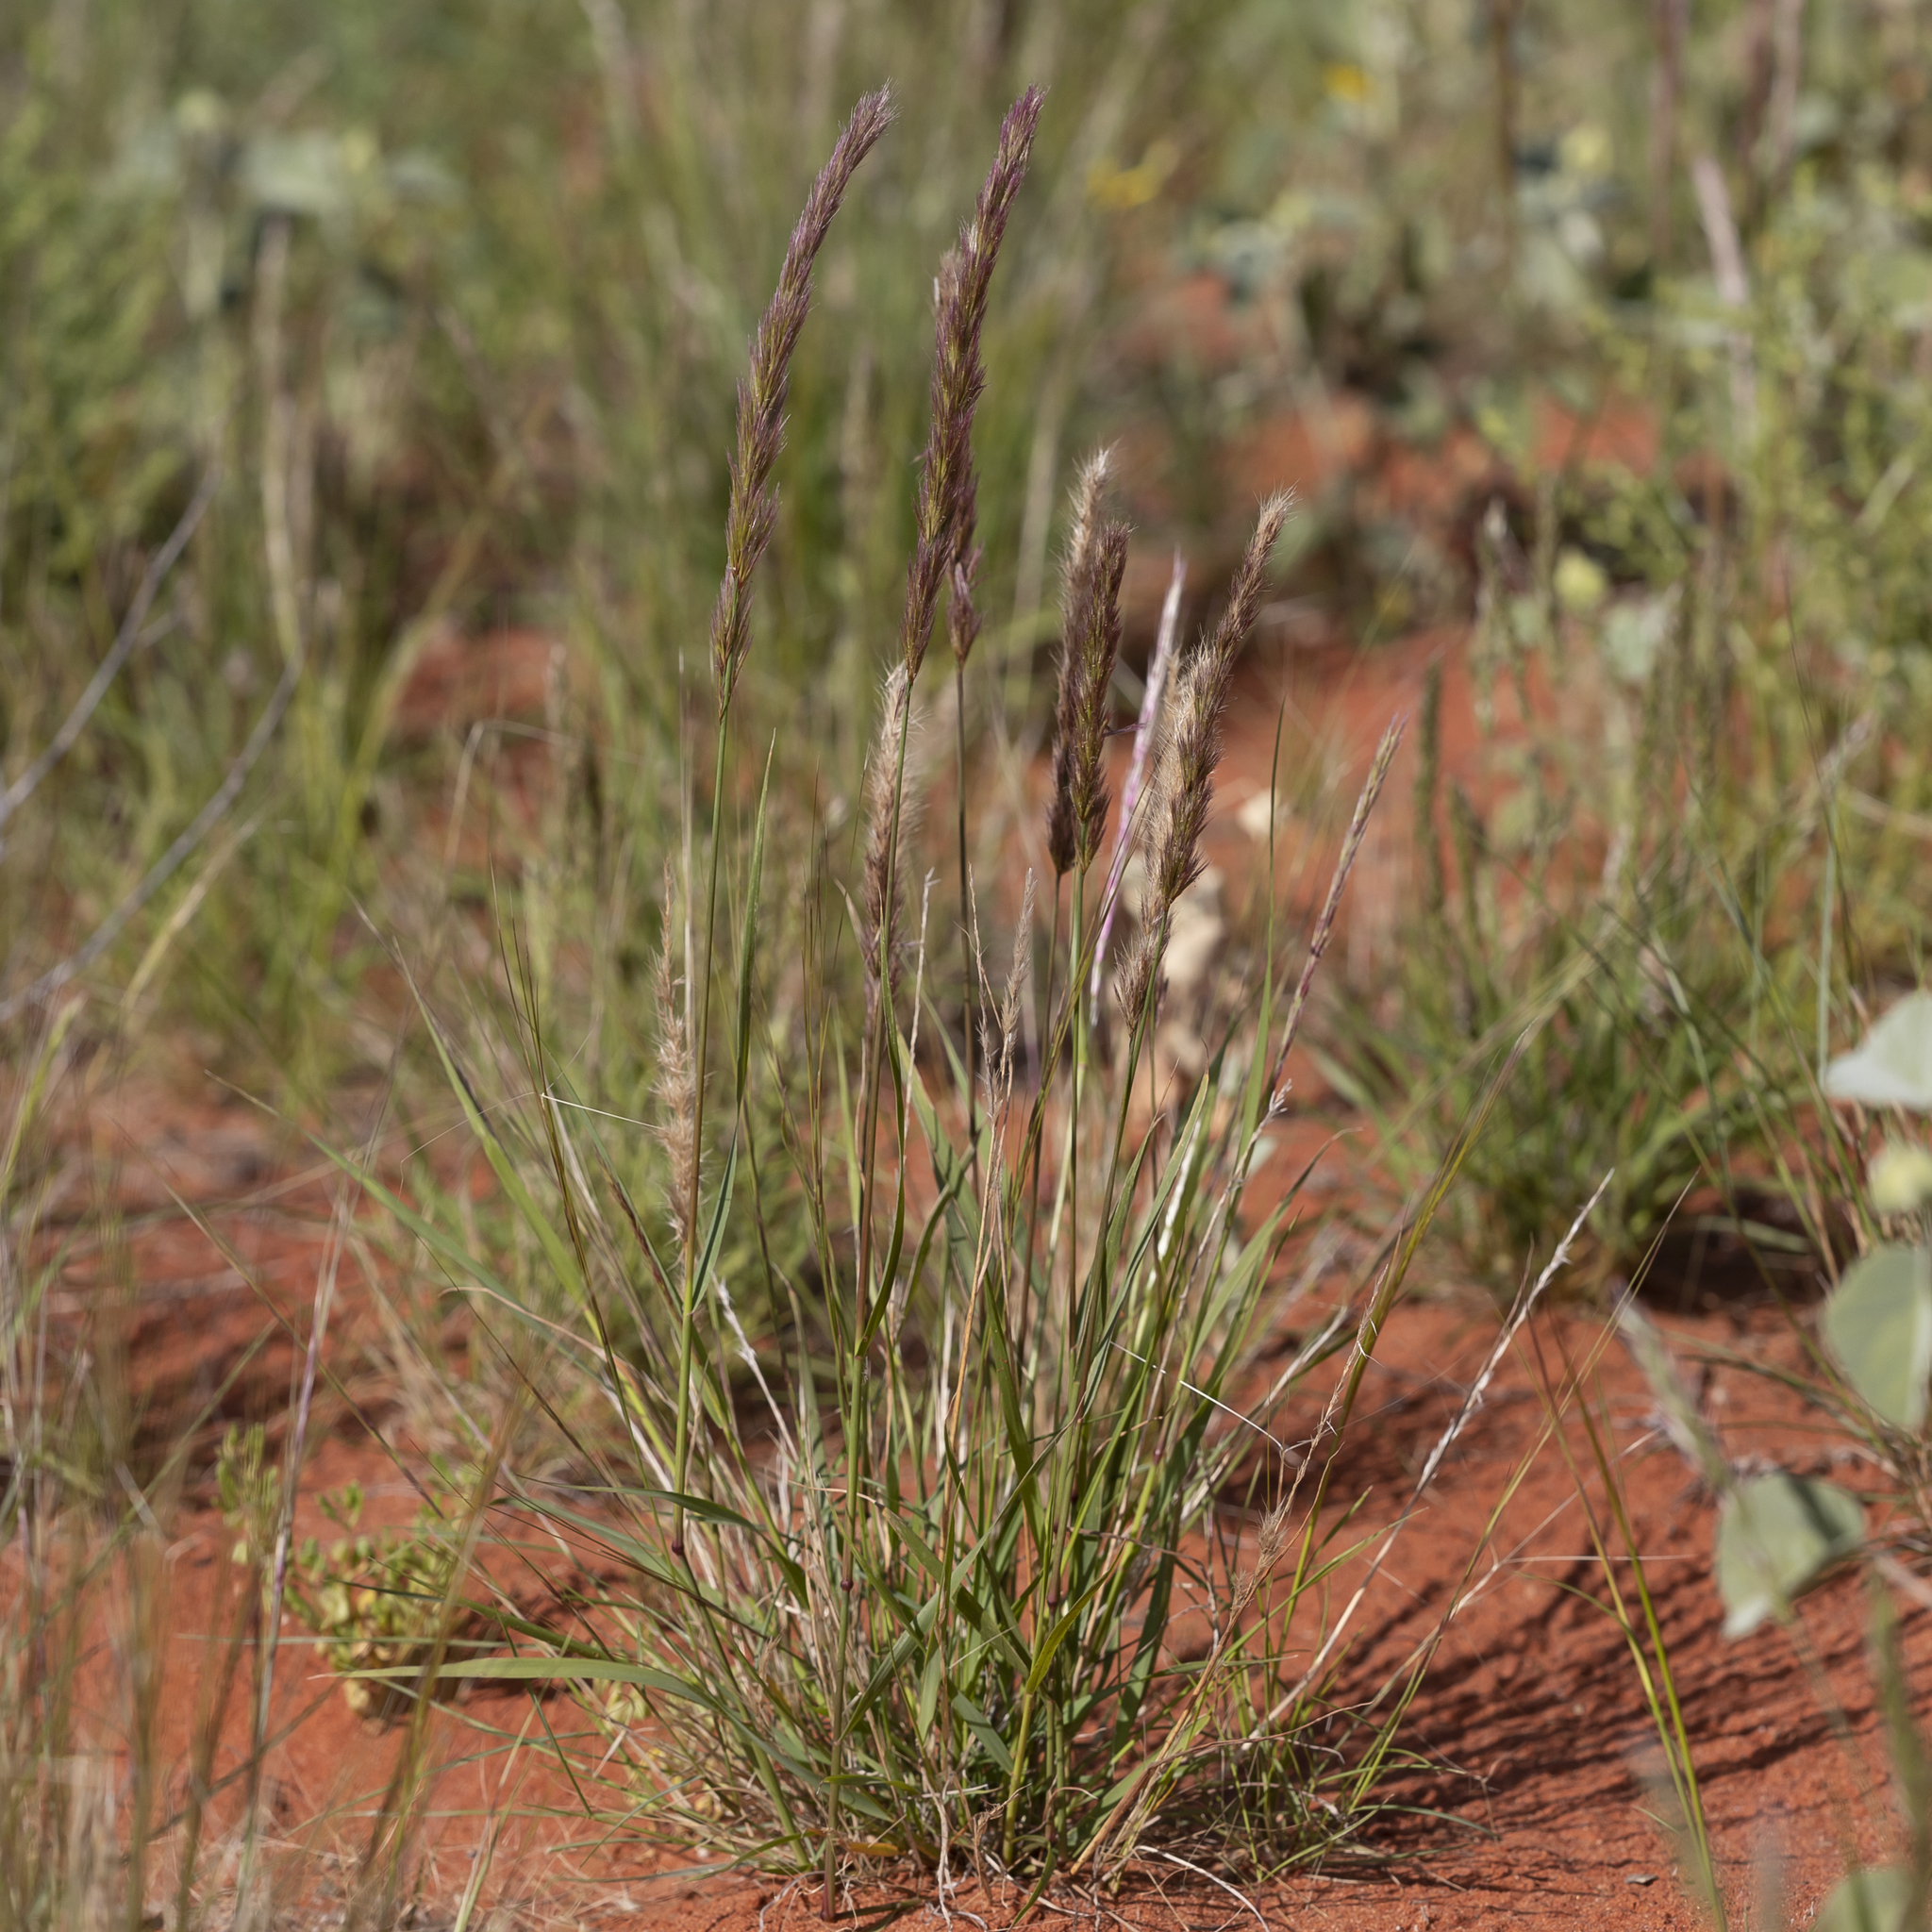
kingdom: Plantae
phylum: Tracheophyta
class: Liliopsida
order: Poales
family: Poaceae
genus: Triraphis
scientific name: Triraphis mollis
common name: Purple needlegrass
